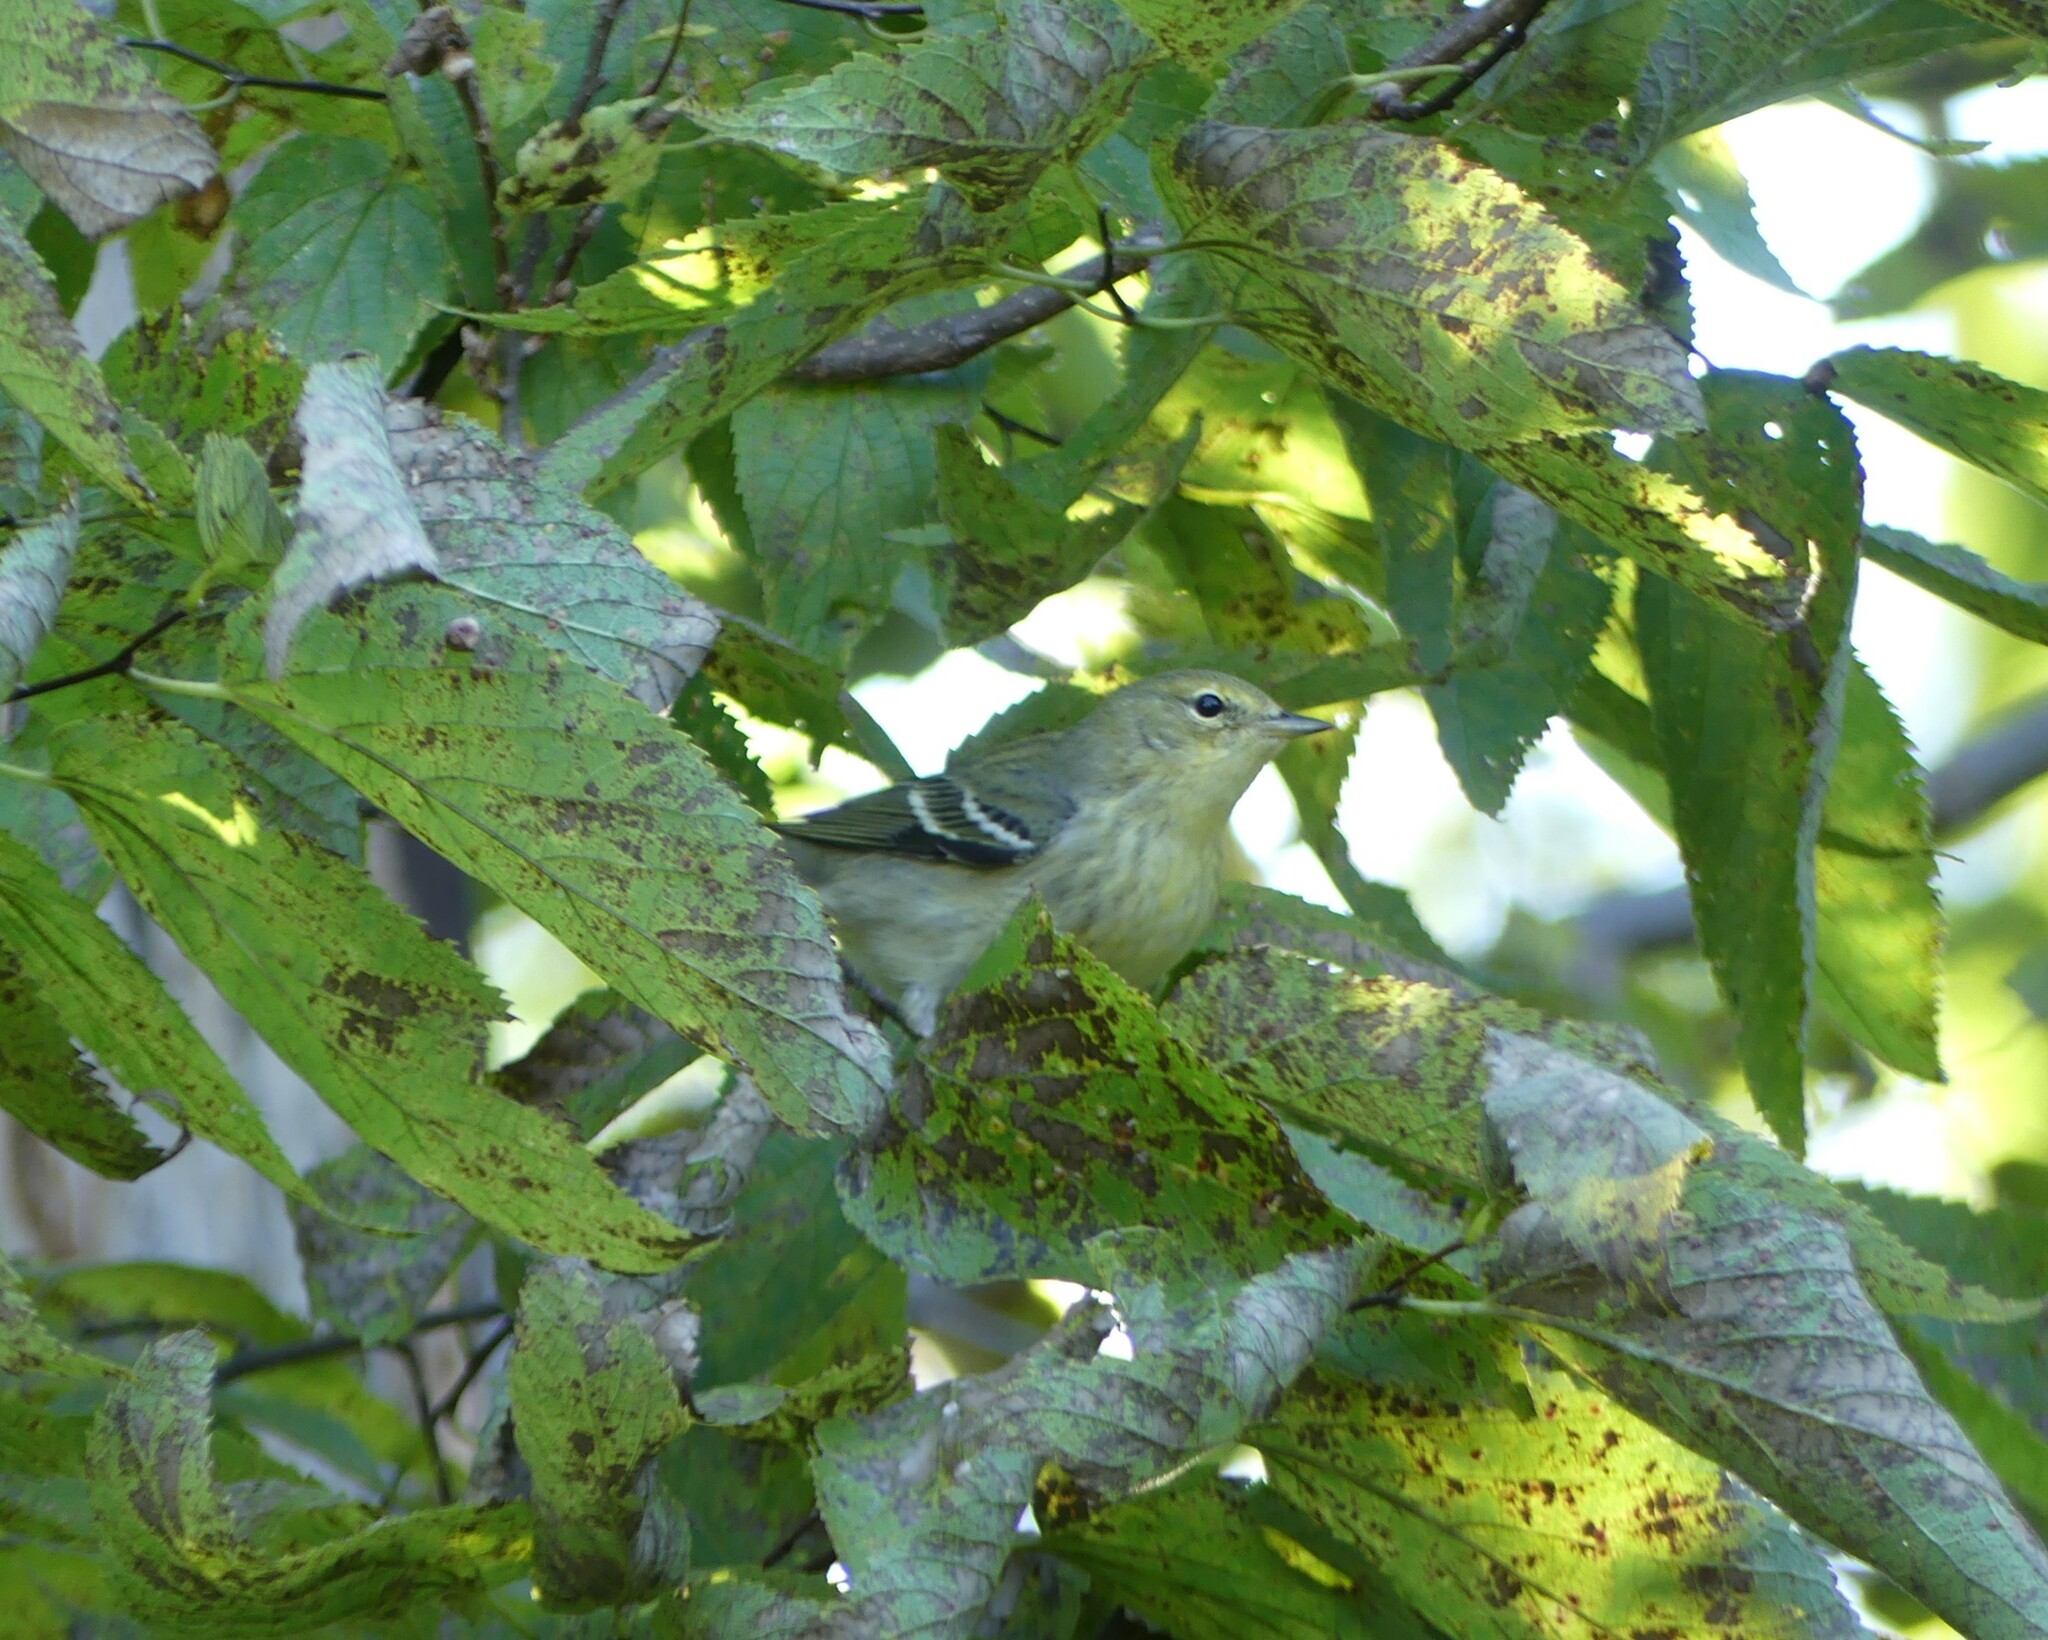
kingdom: Animalia
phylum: Chordata
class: Aves
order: Passeriformes
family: Parulidae
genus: Setophaga
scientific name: Setophaga striata
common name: Blackpoll warbler
